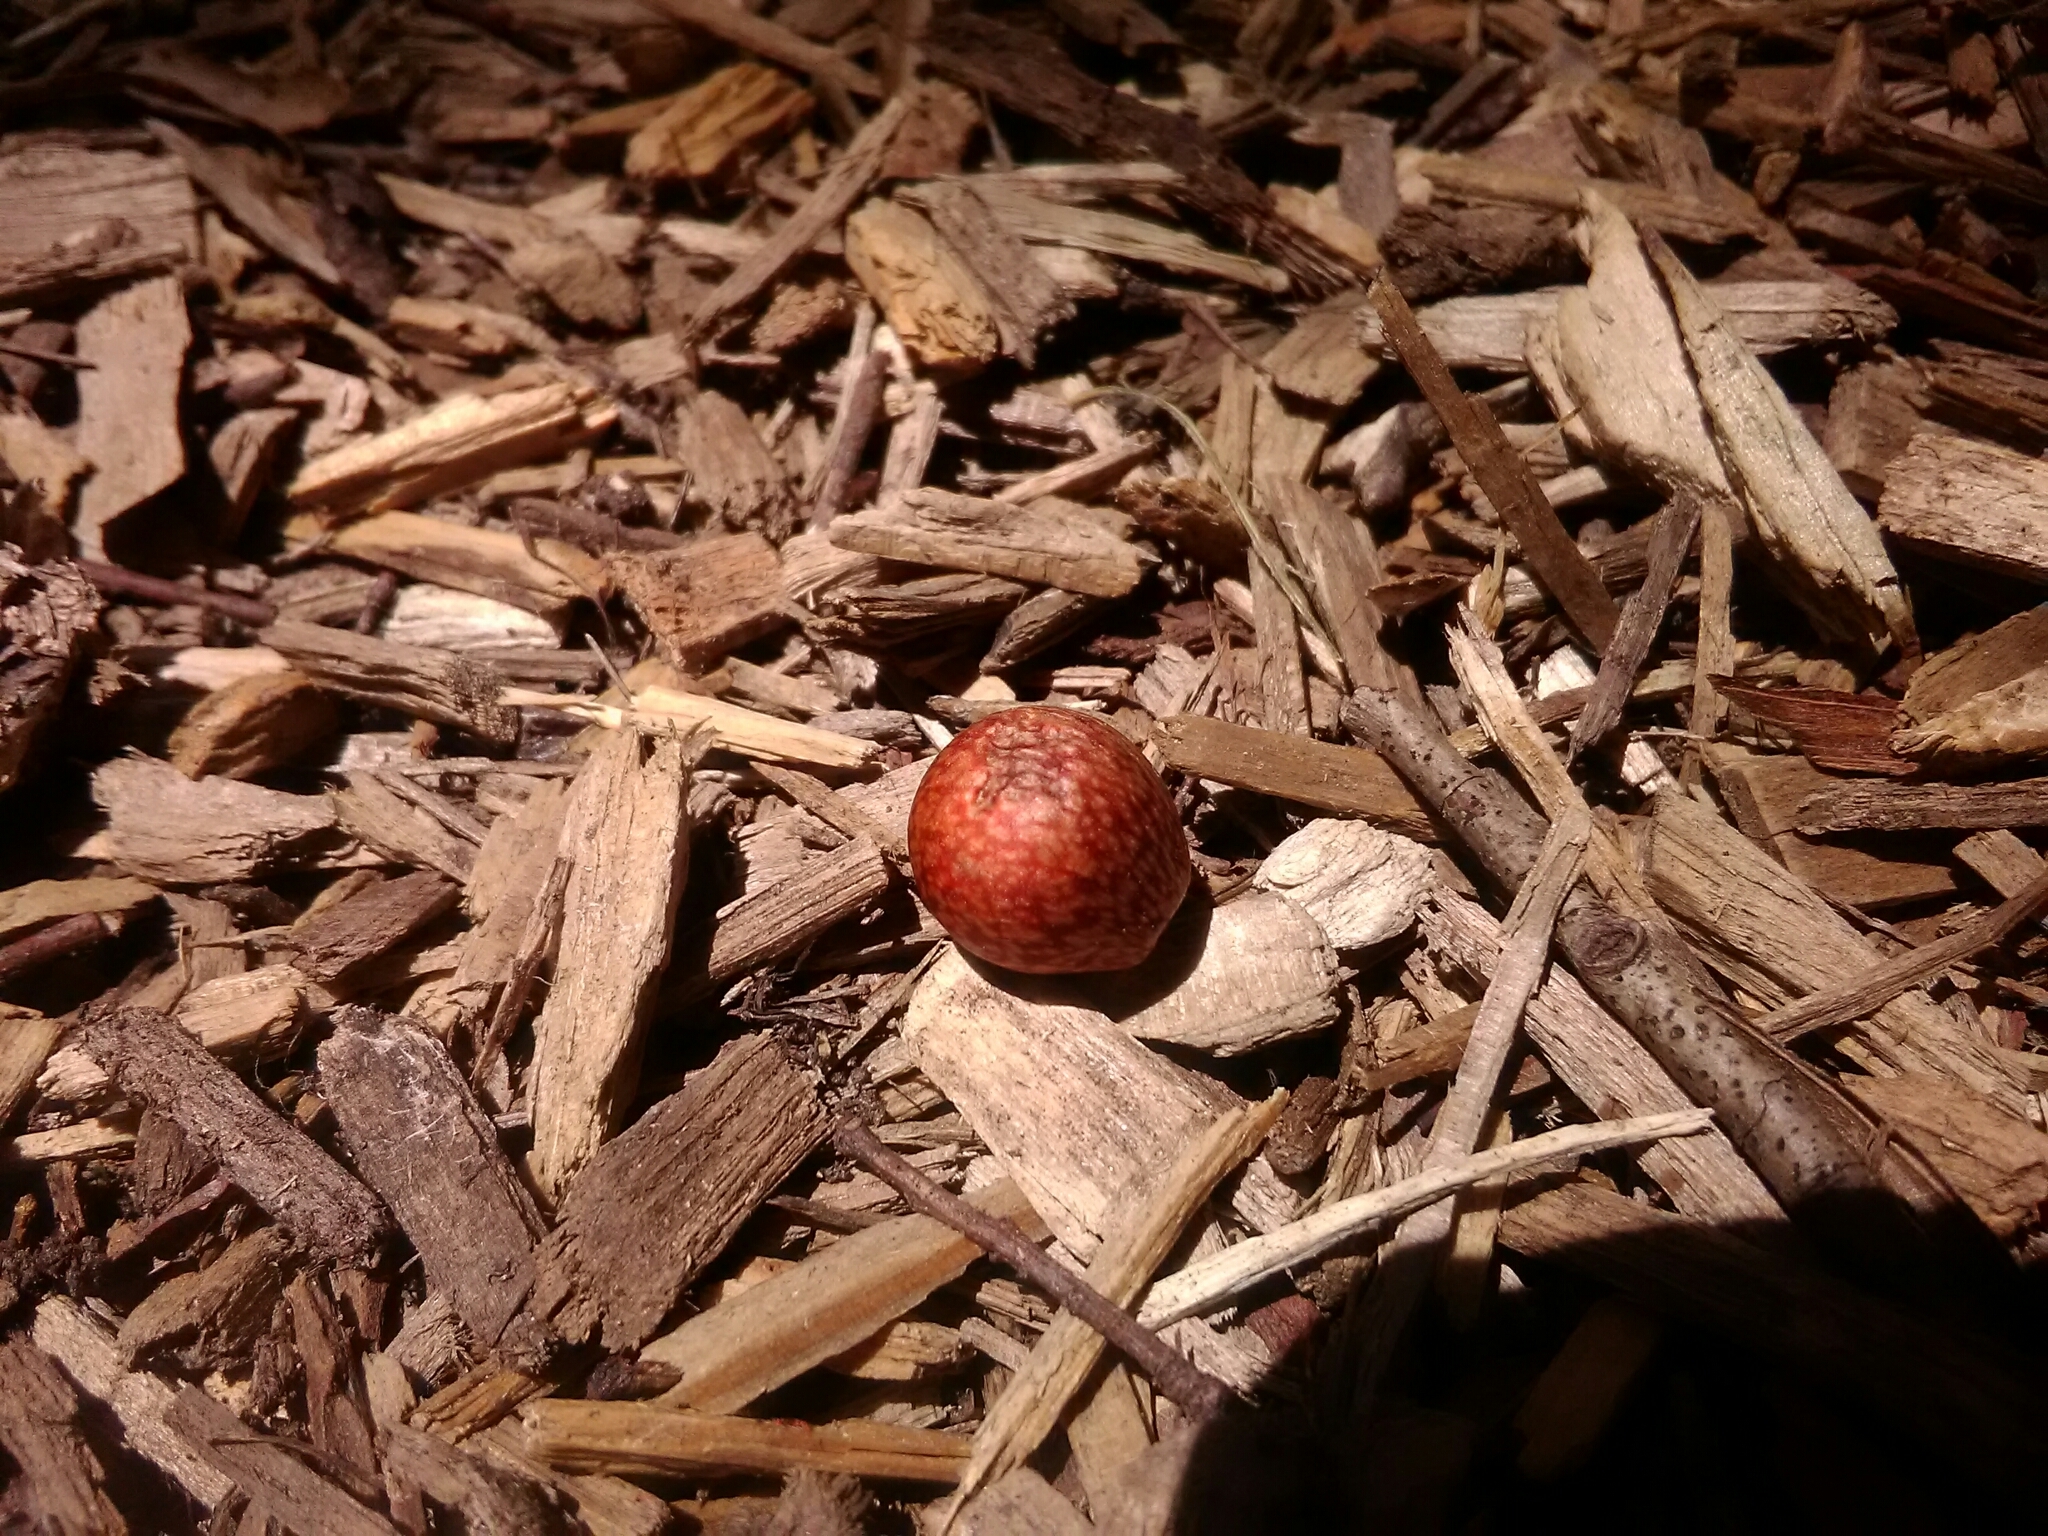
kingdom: Animalia
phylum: Arthropoda
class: Insecta
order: Hymenoptera
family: Cynipidae
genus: Amphibolips
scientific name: Amphibolips
